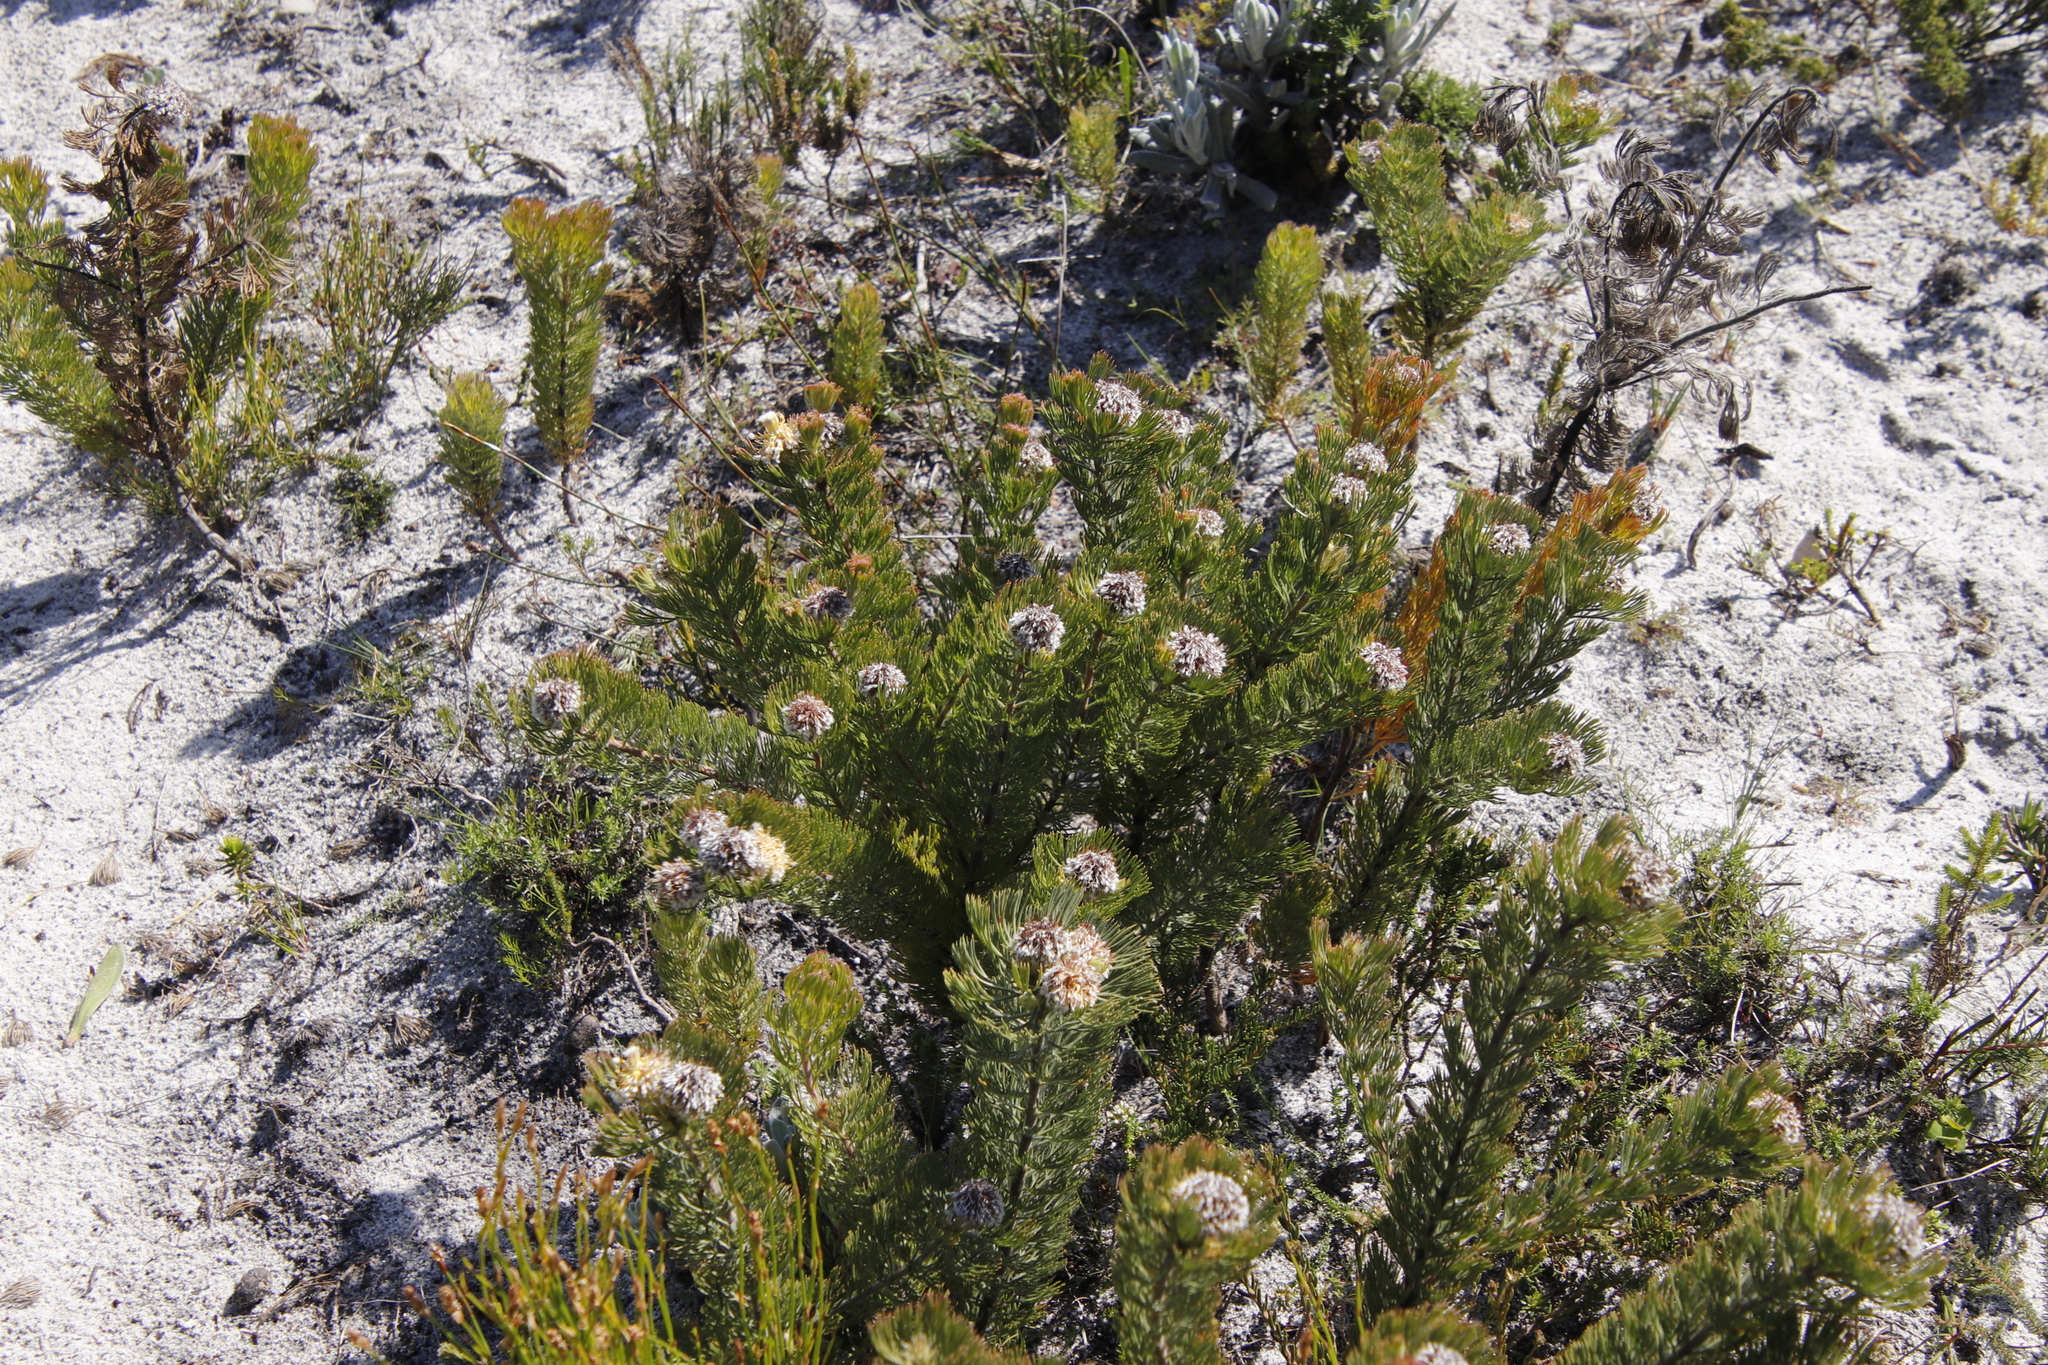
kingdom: Plantae
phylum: Tracheophyta
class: Magnoliopsida
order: Proteales
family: Proteaceae
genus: Serruria
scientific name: Serruria villosa
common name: Golden spiderhead
